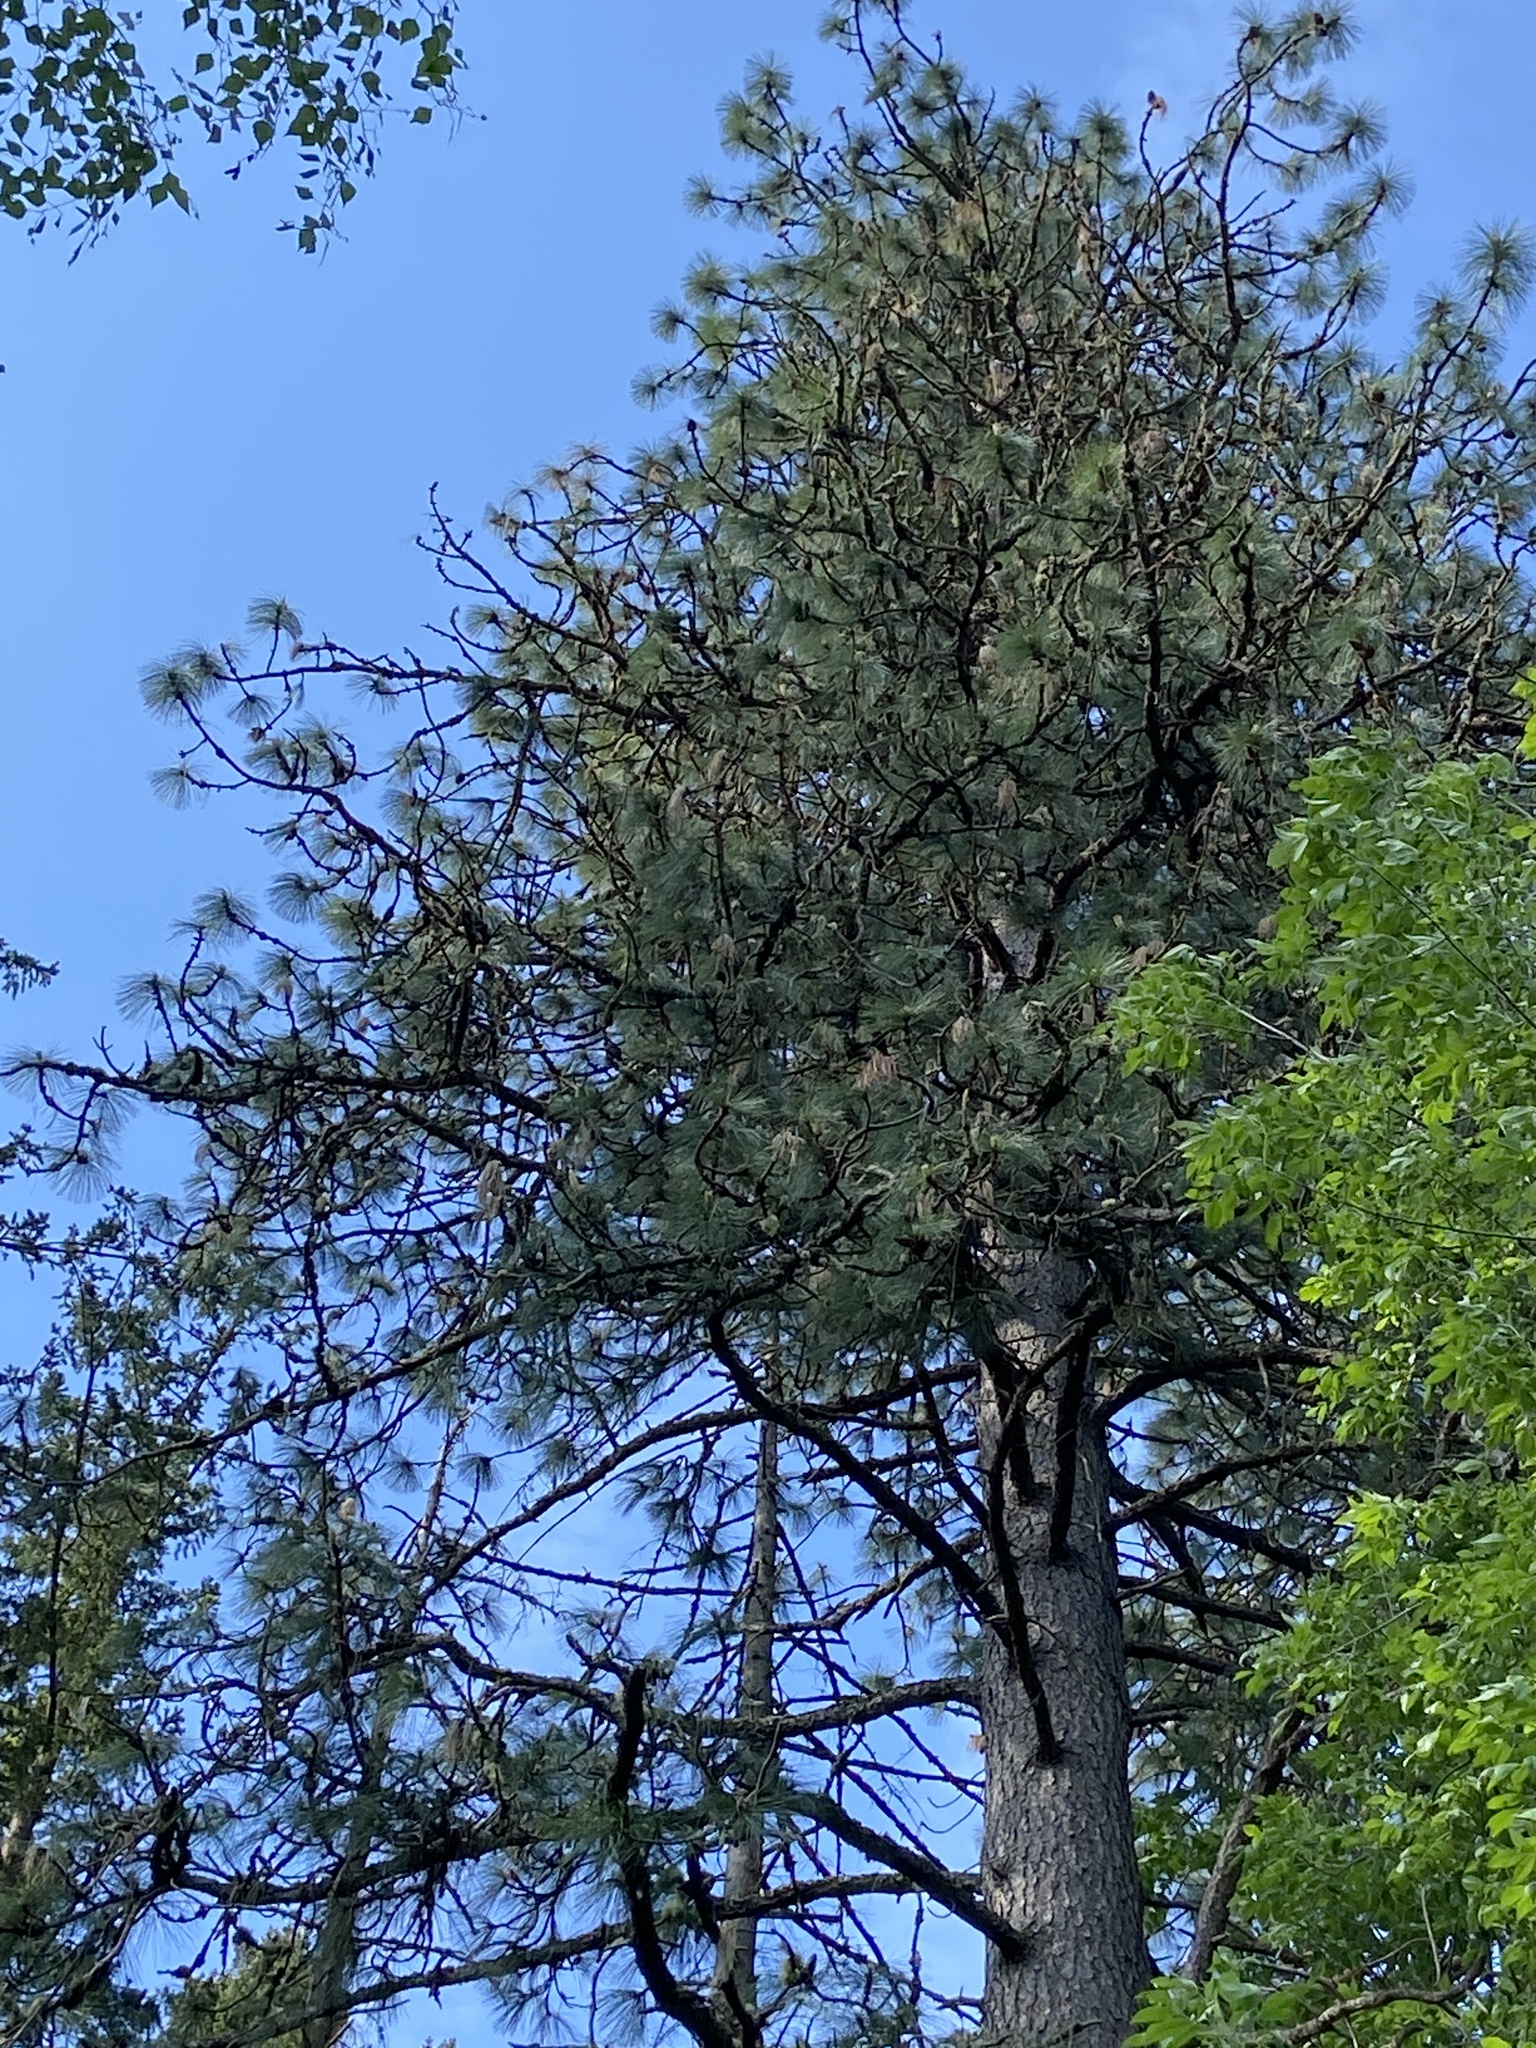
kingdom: Plantae
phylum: Tracheophyta
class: Pinopsida
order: Pinales
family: Pinaceae
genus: Pinus
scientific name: Pinus ponderosa
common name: Western yellow-pine
